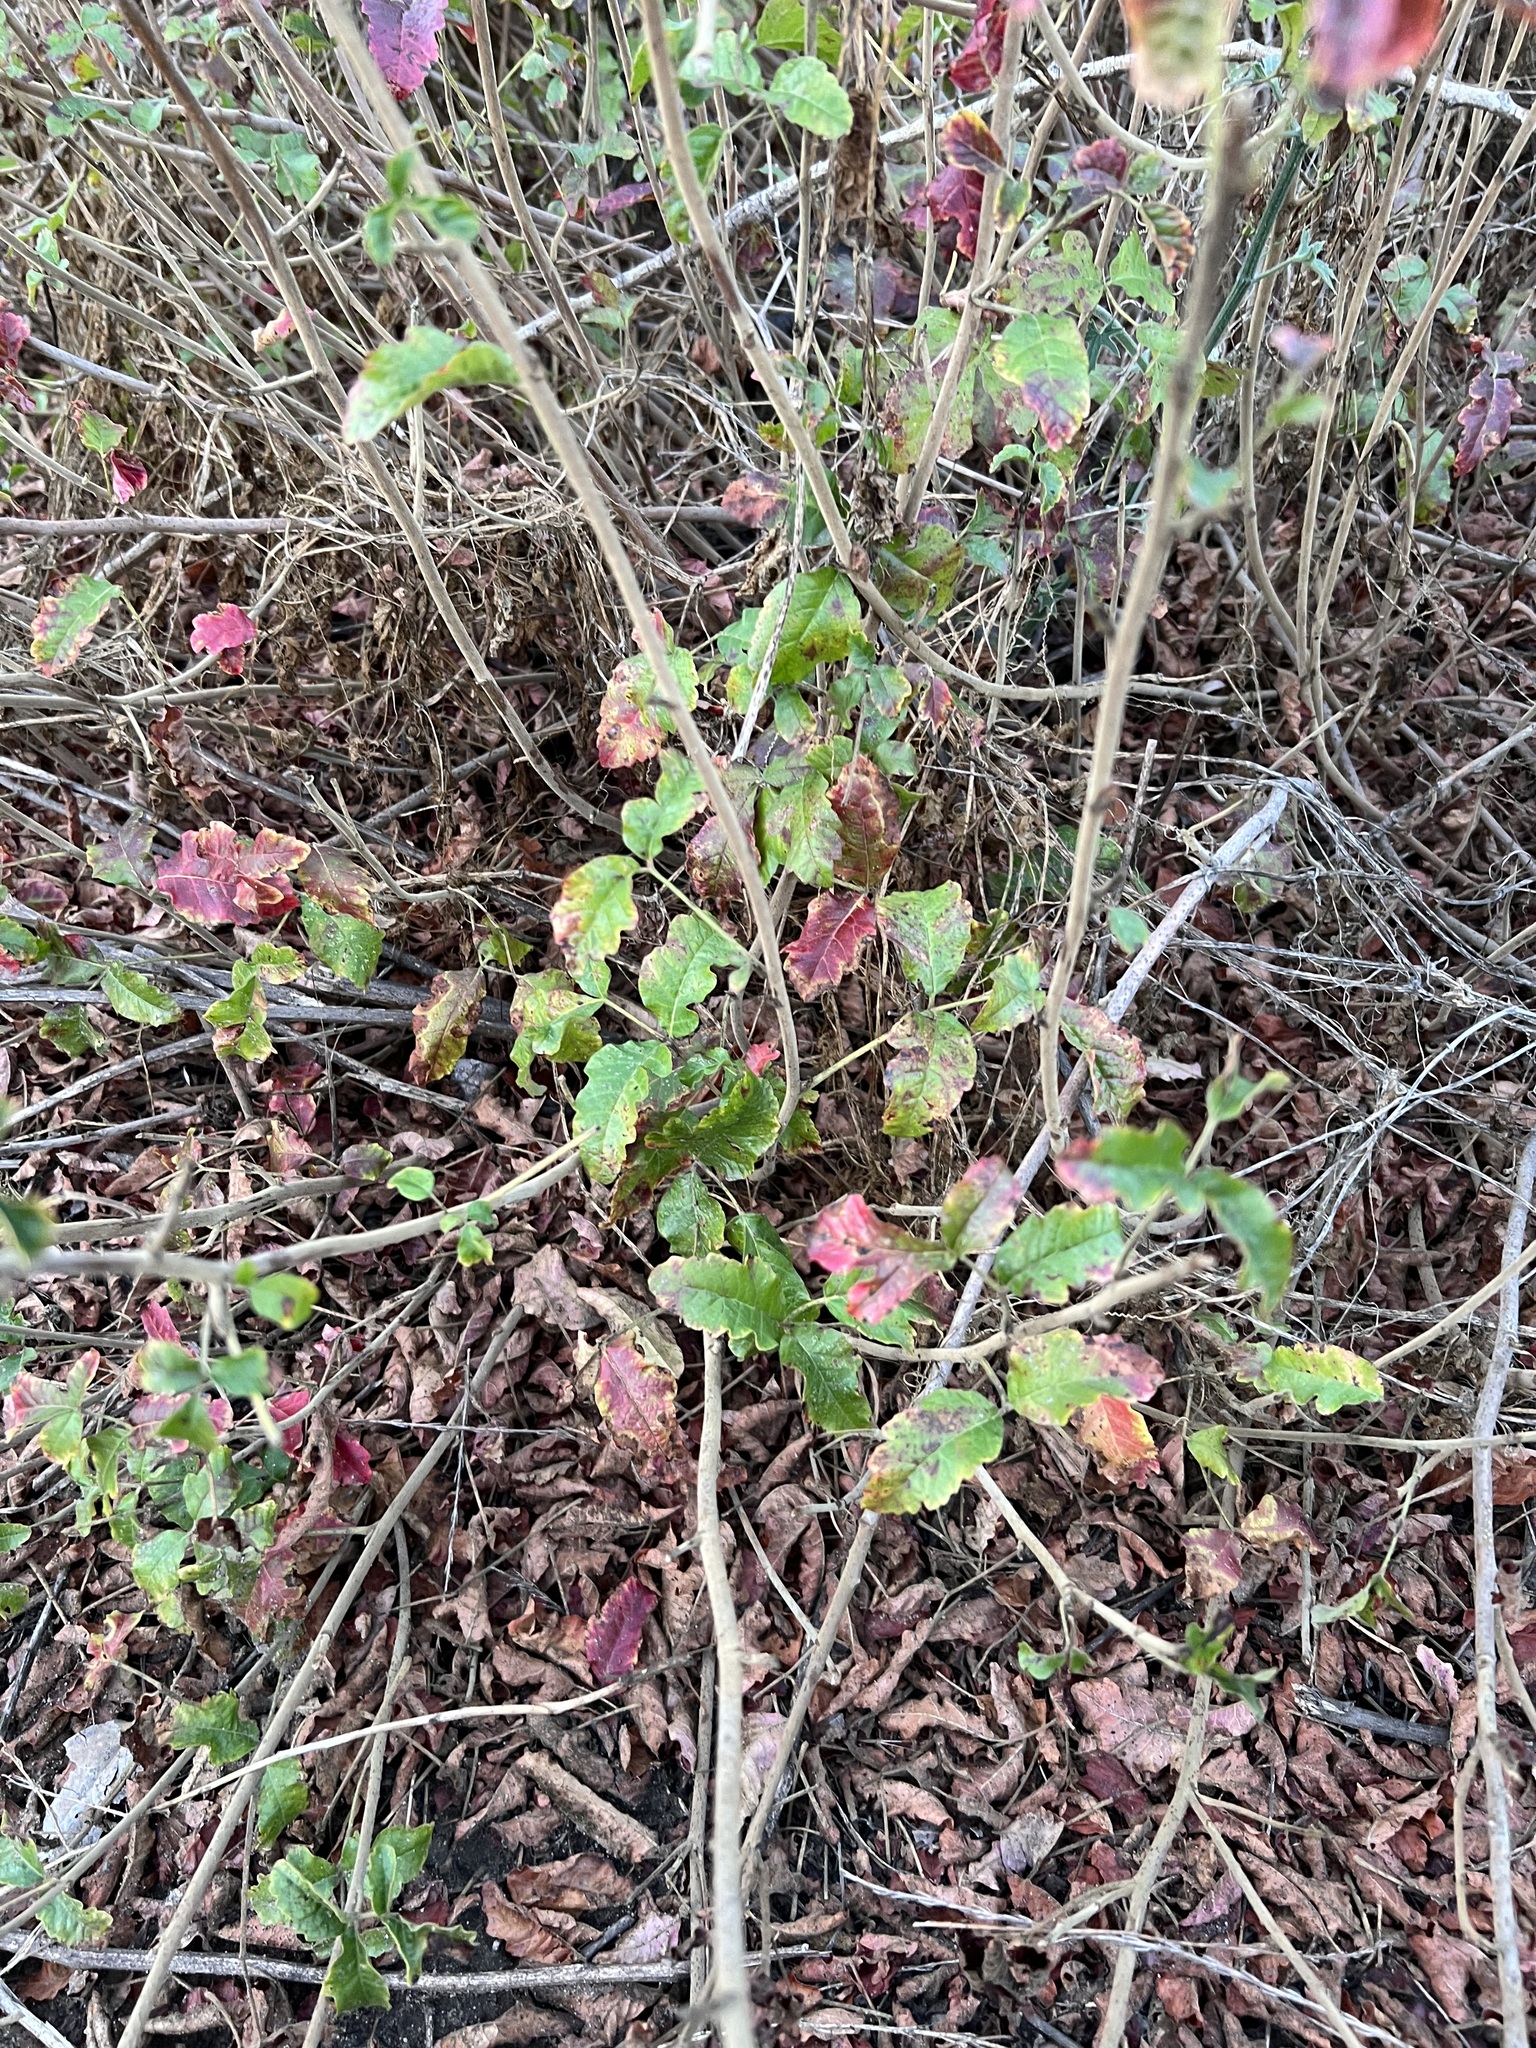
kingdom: Plantae
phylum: Tracheophyta
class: Magnoliopsida
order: Sapindales
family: Anacardiaceae
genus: Toxicodendron
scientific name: Toxicodendron diversilobum
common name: Pacific poison-oak
